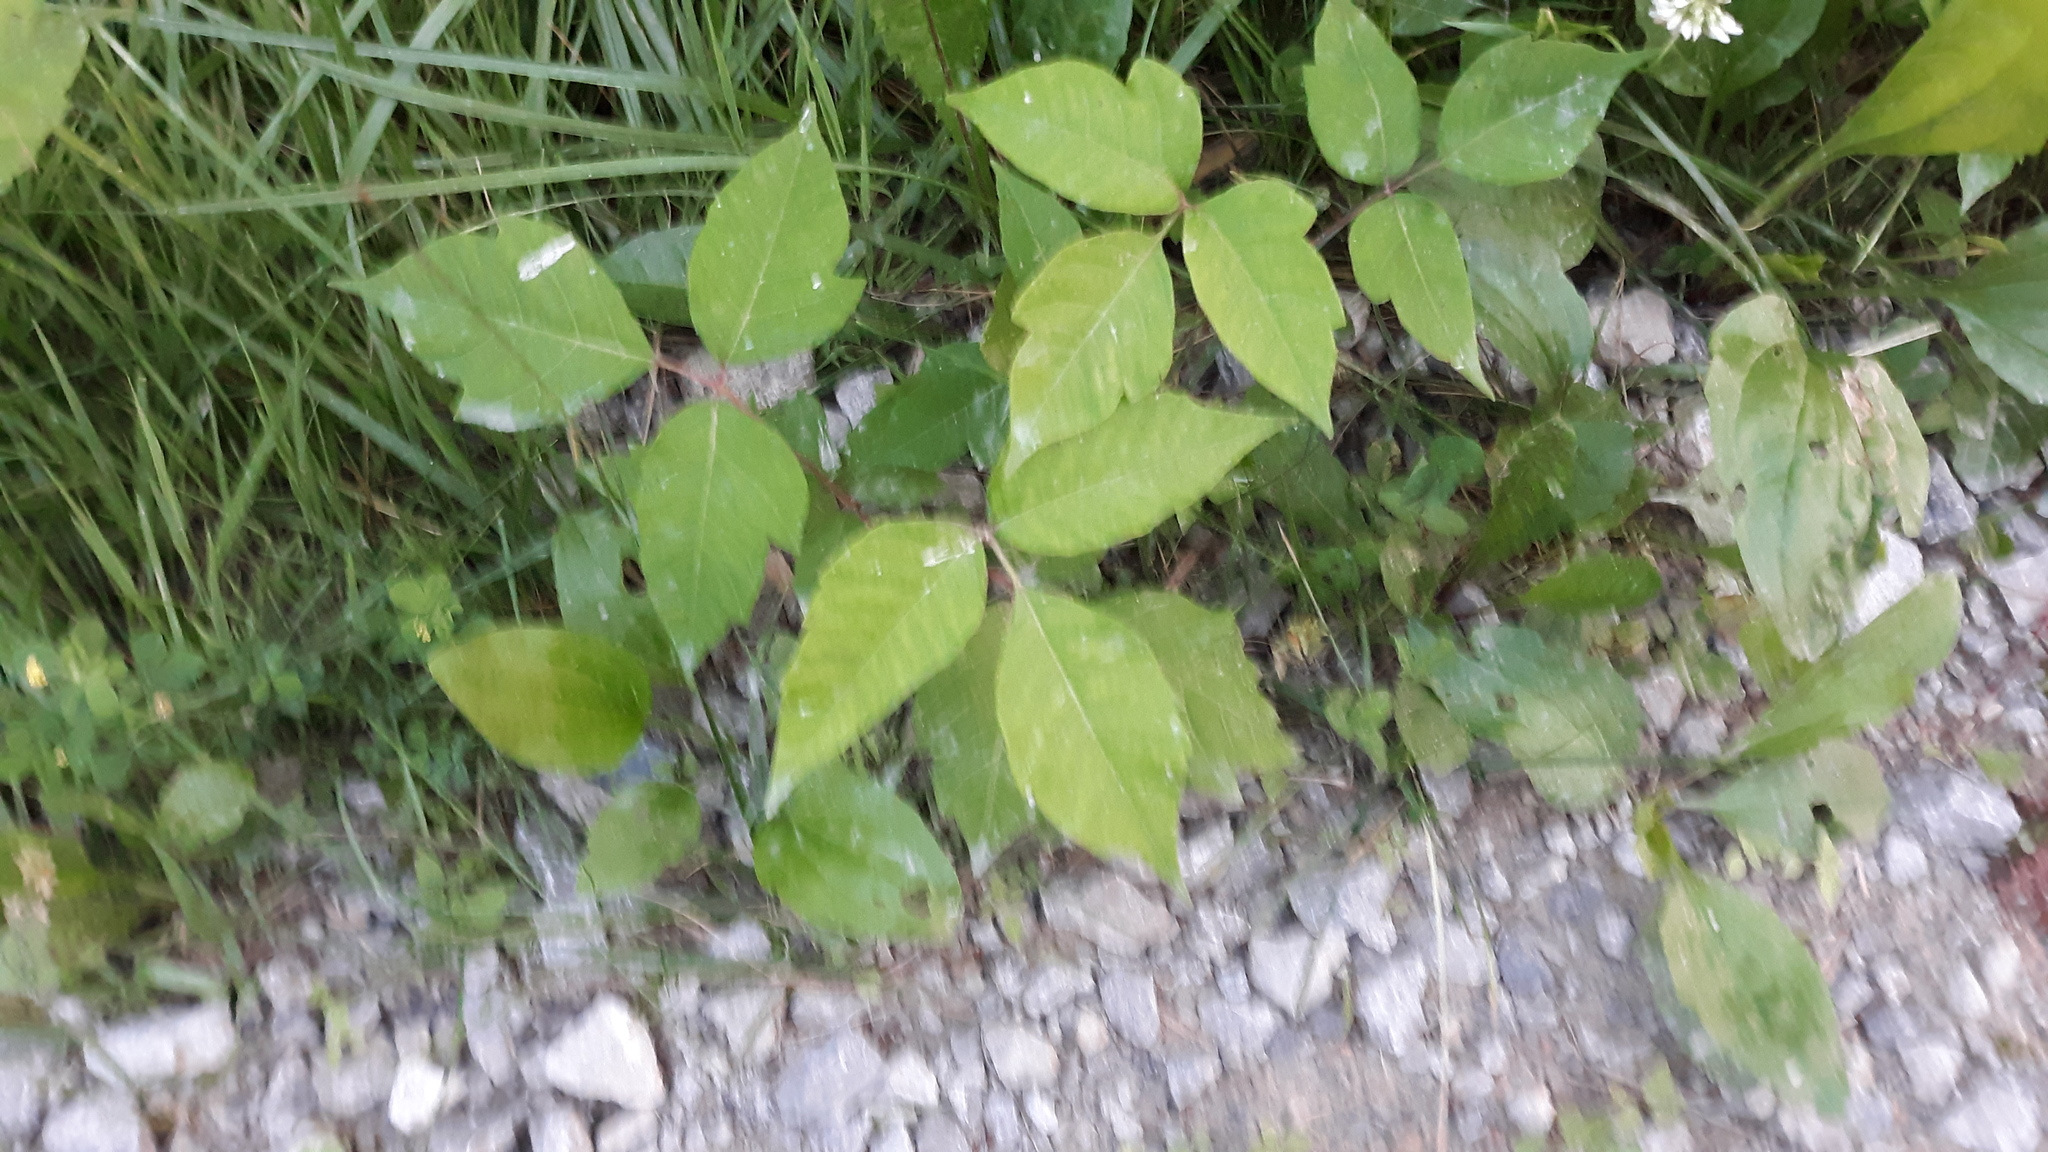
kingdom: Plantae
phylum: Tracheophyta
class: Magnoliopsida
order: Sapindales
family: Anacardiaceae
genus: Toxicodendron
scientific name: Toxicodendron radicans
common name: Poison ivy
